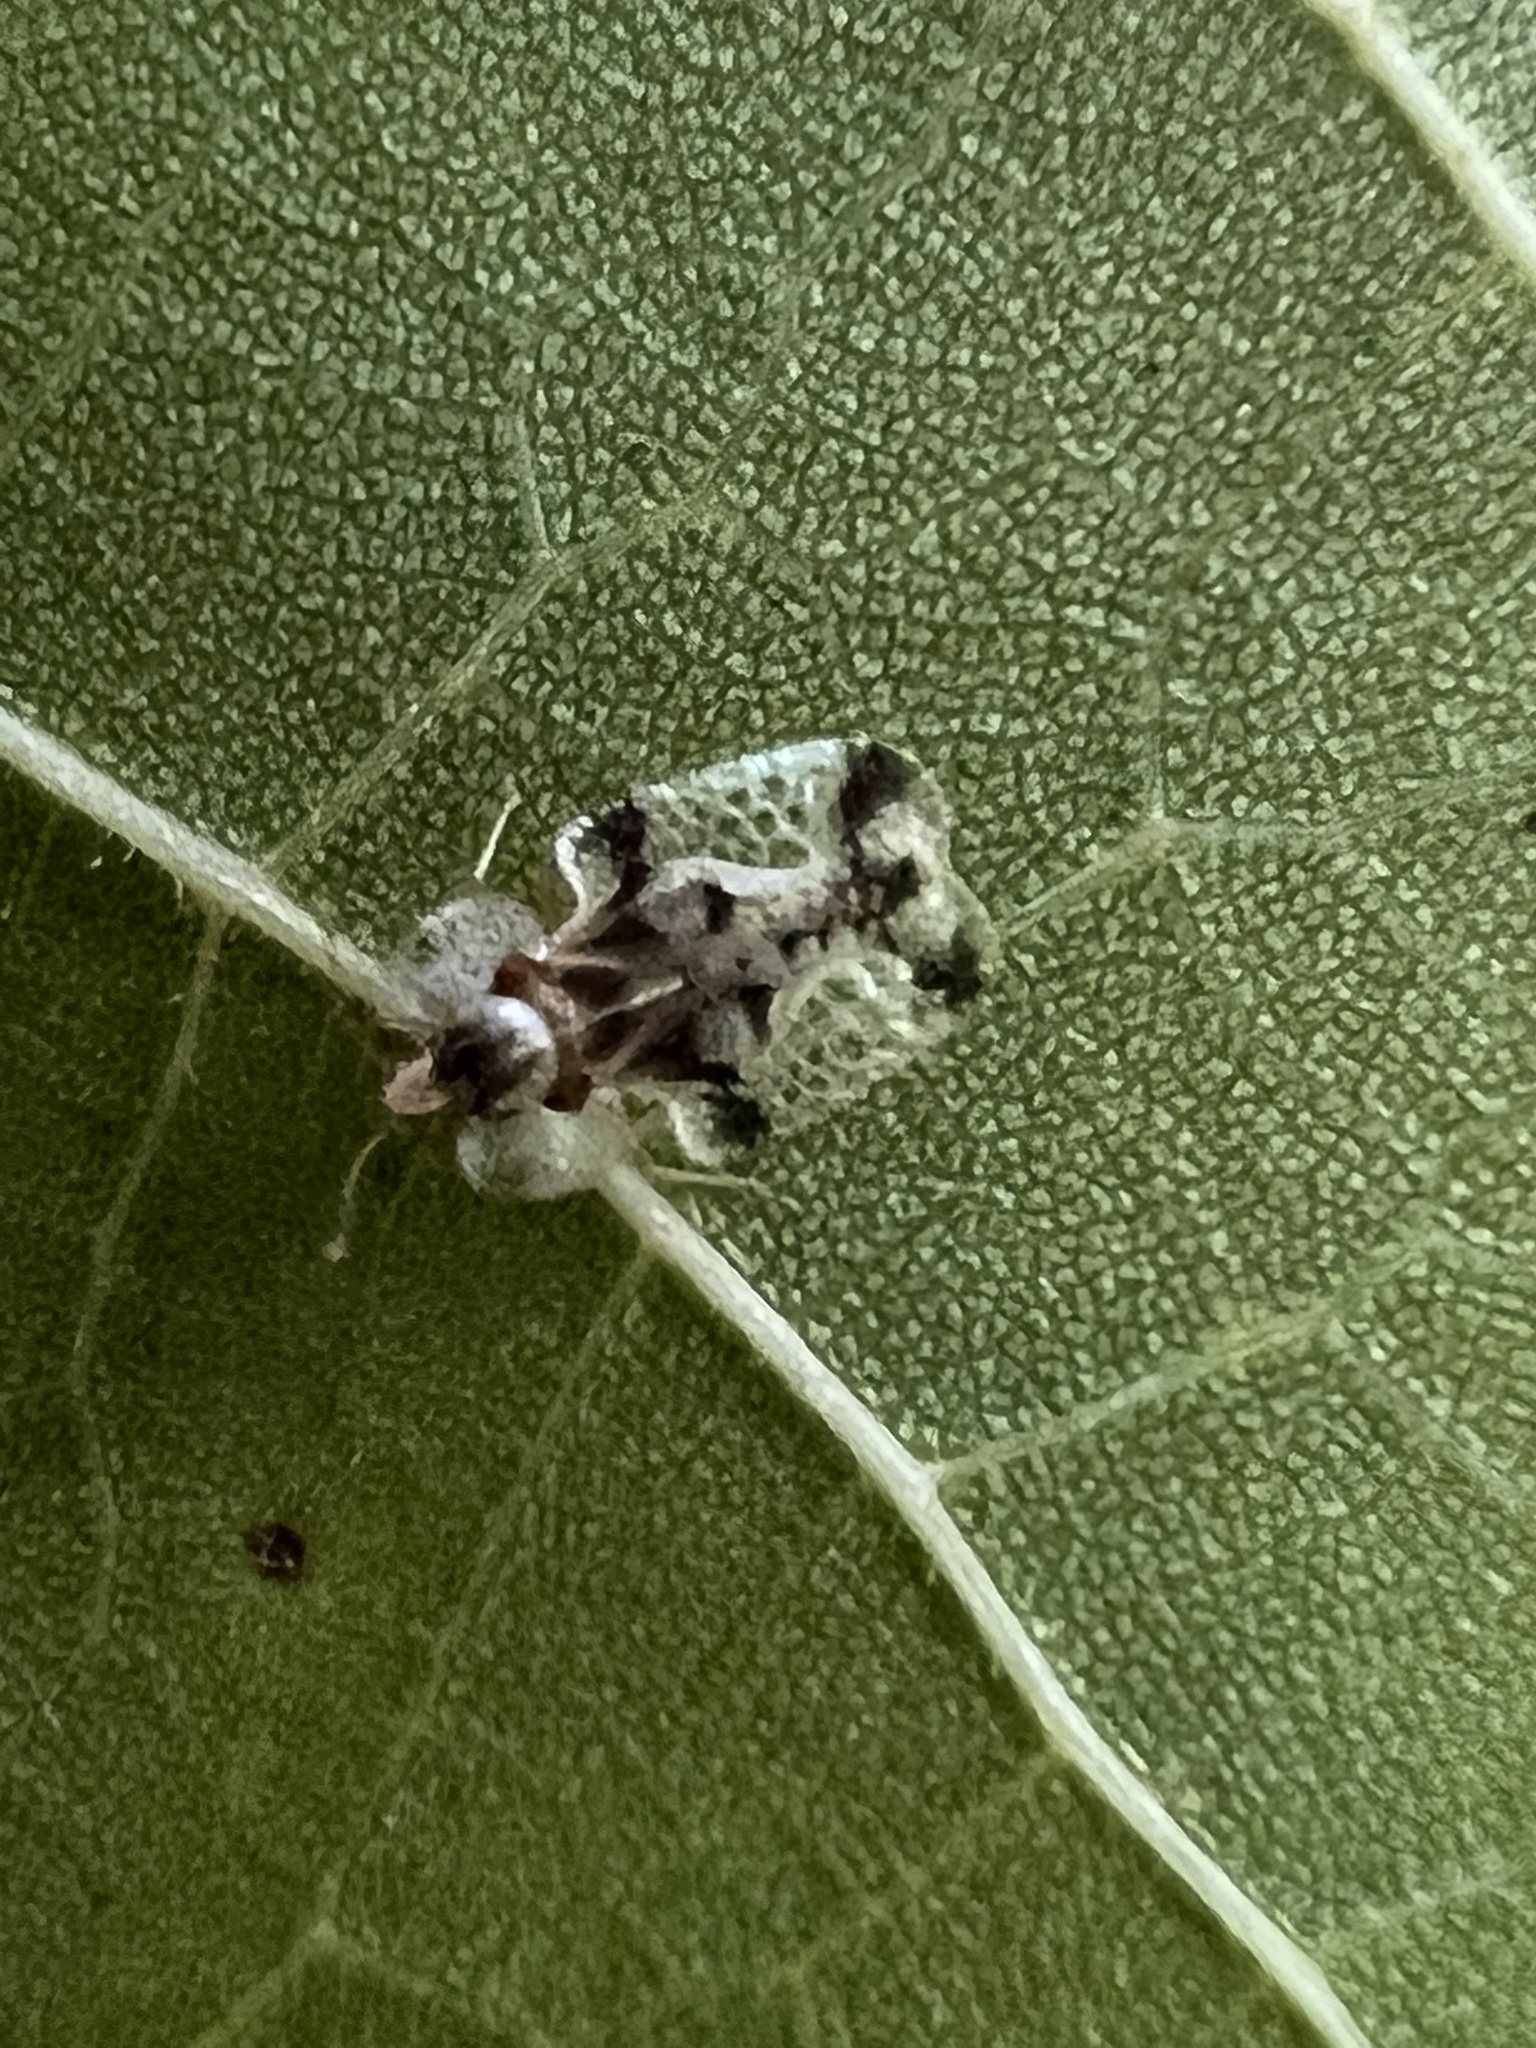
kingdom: Animalia
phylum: Arthropoda
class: Insecta
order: Hemiptera
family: Tingidae
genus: Corythucha
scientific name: Corythucha juglandis
